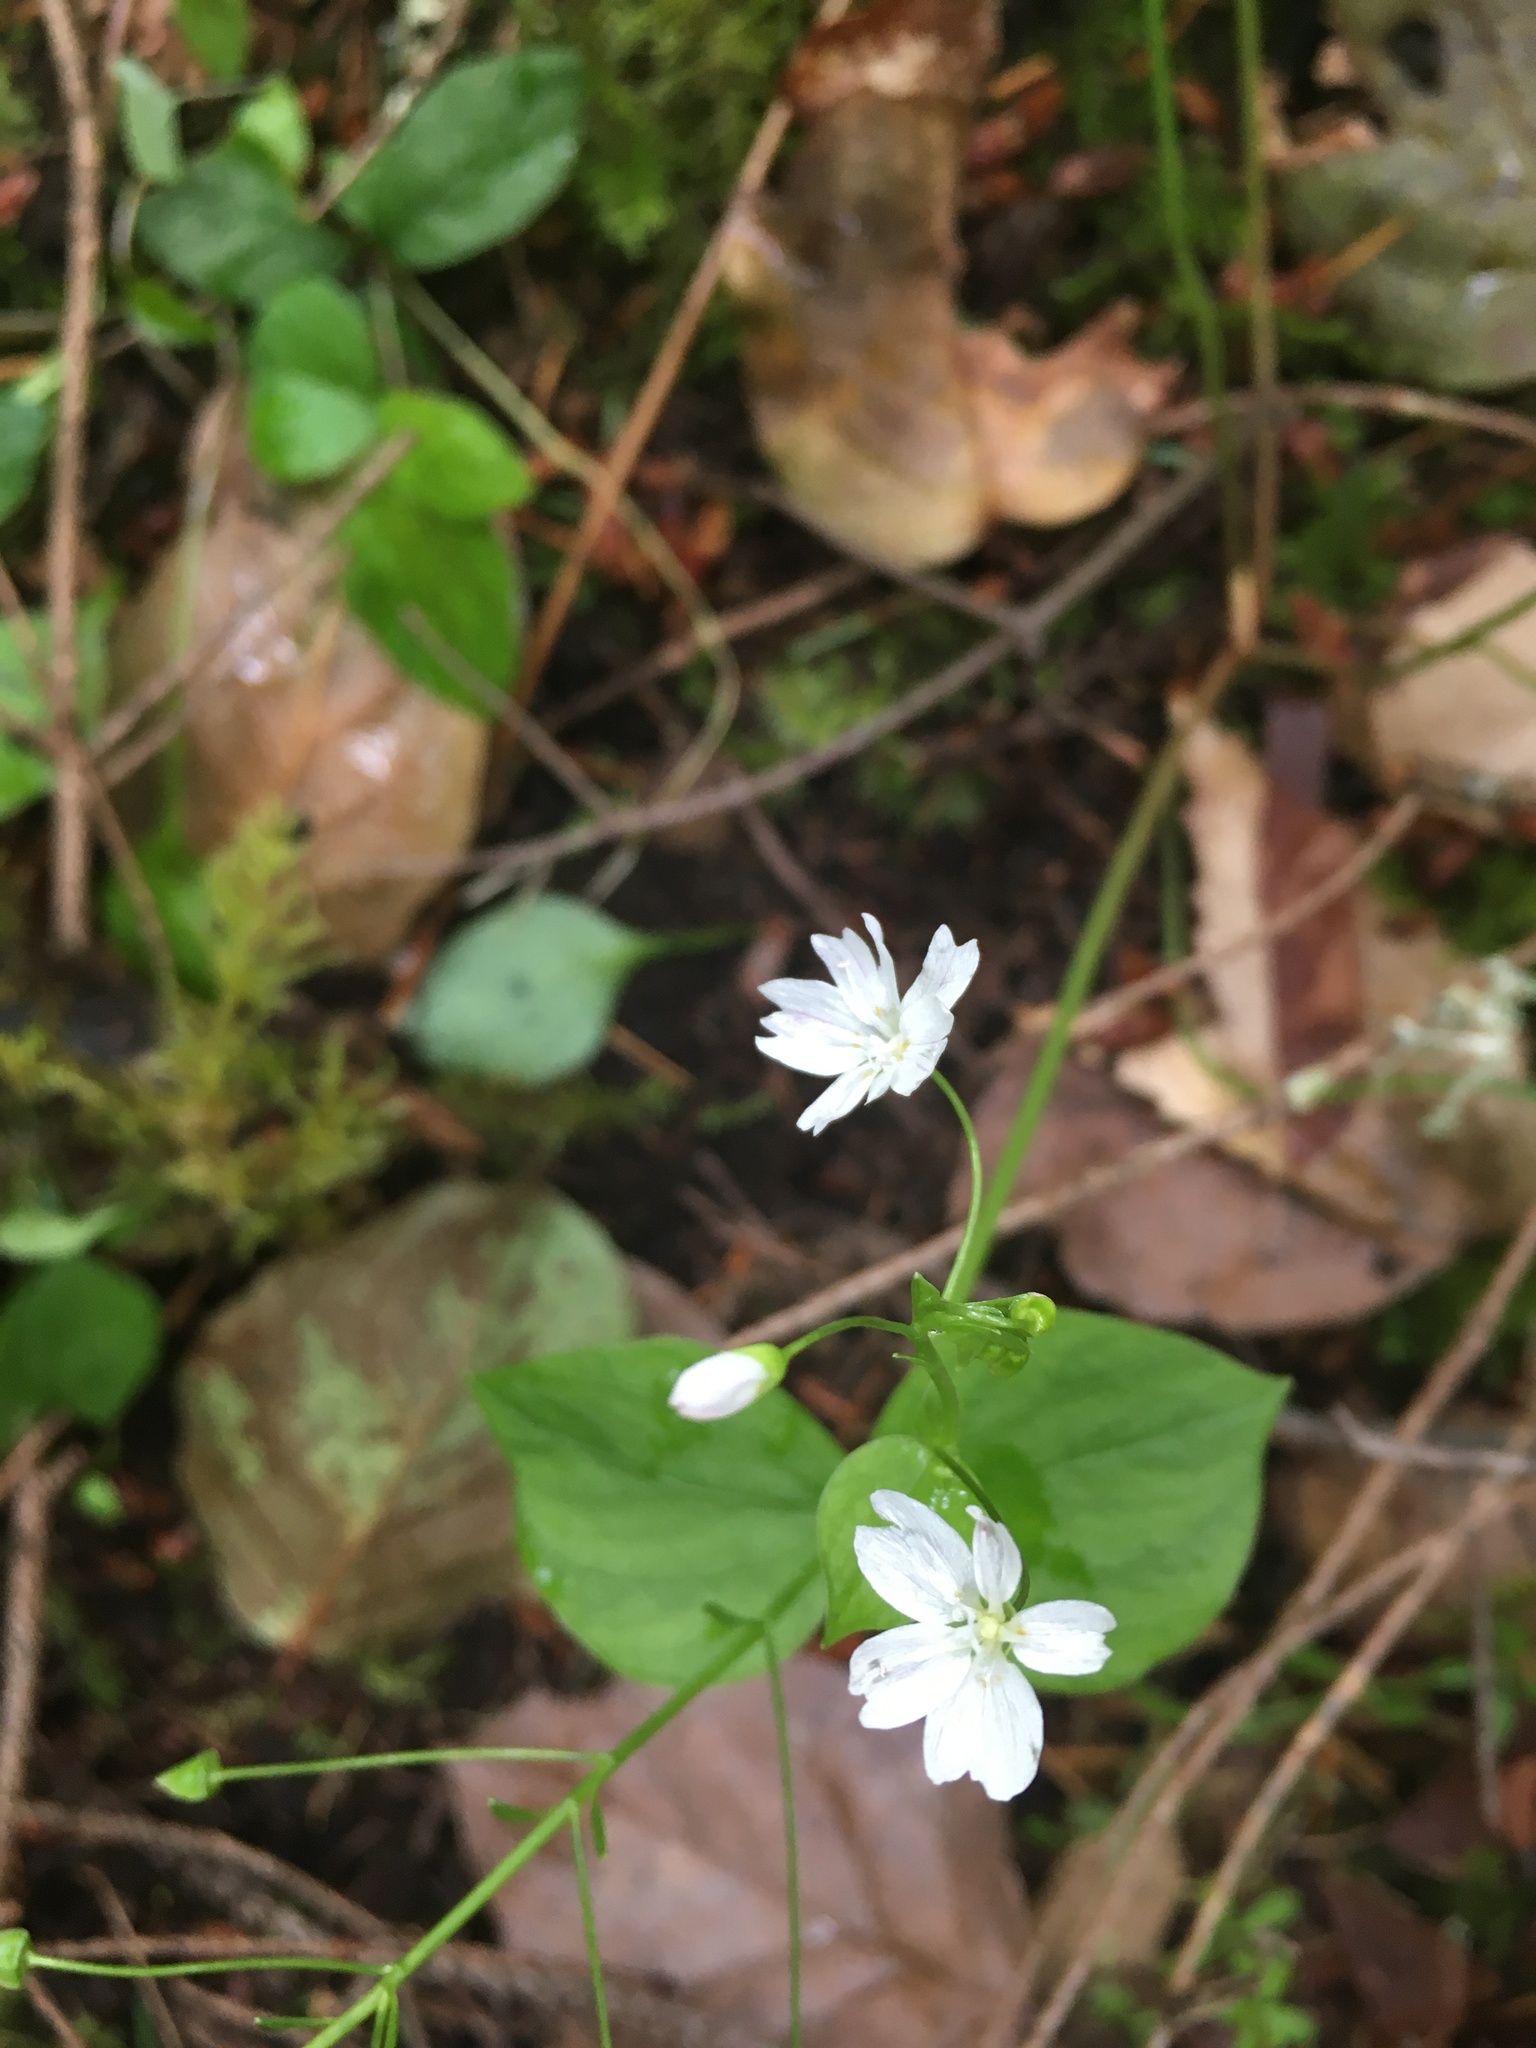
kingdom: Plantae
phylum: Tracheophyta
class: Magnoliopsida
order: Caryophyllales
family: Montiaceae
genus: Claytonia
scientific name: Claytonia sibirica
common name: Pink purslane
